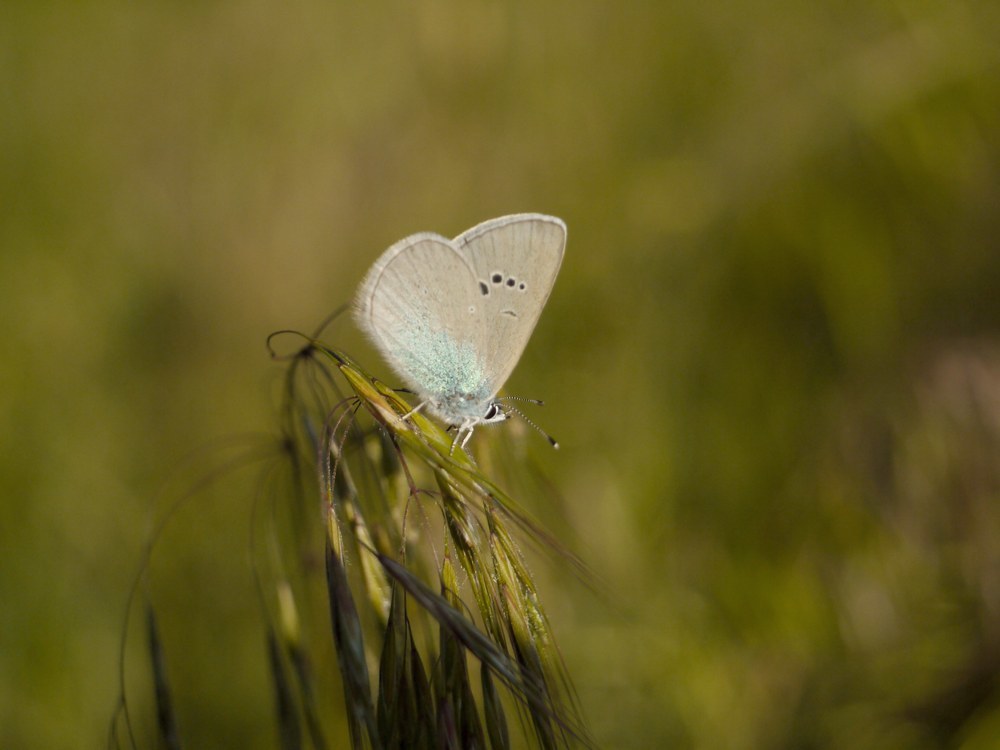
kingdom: Animalia
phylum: Arthropoda
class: Insecta
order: Lepidoptera
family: Lycaenidae
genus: Glaucopsyche
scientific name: Glaucopsyche alexis
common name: Green-underside blue
